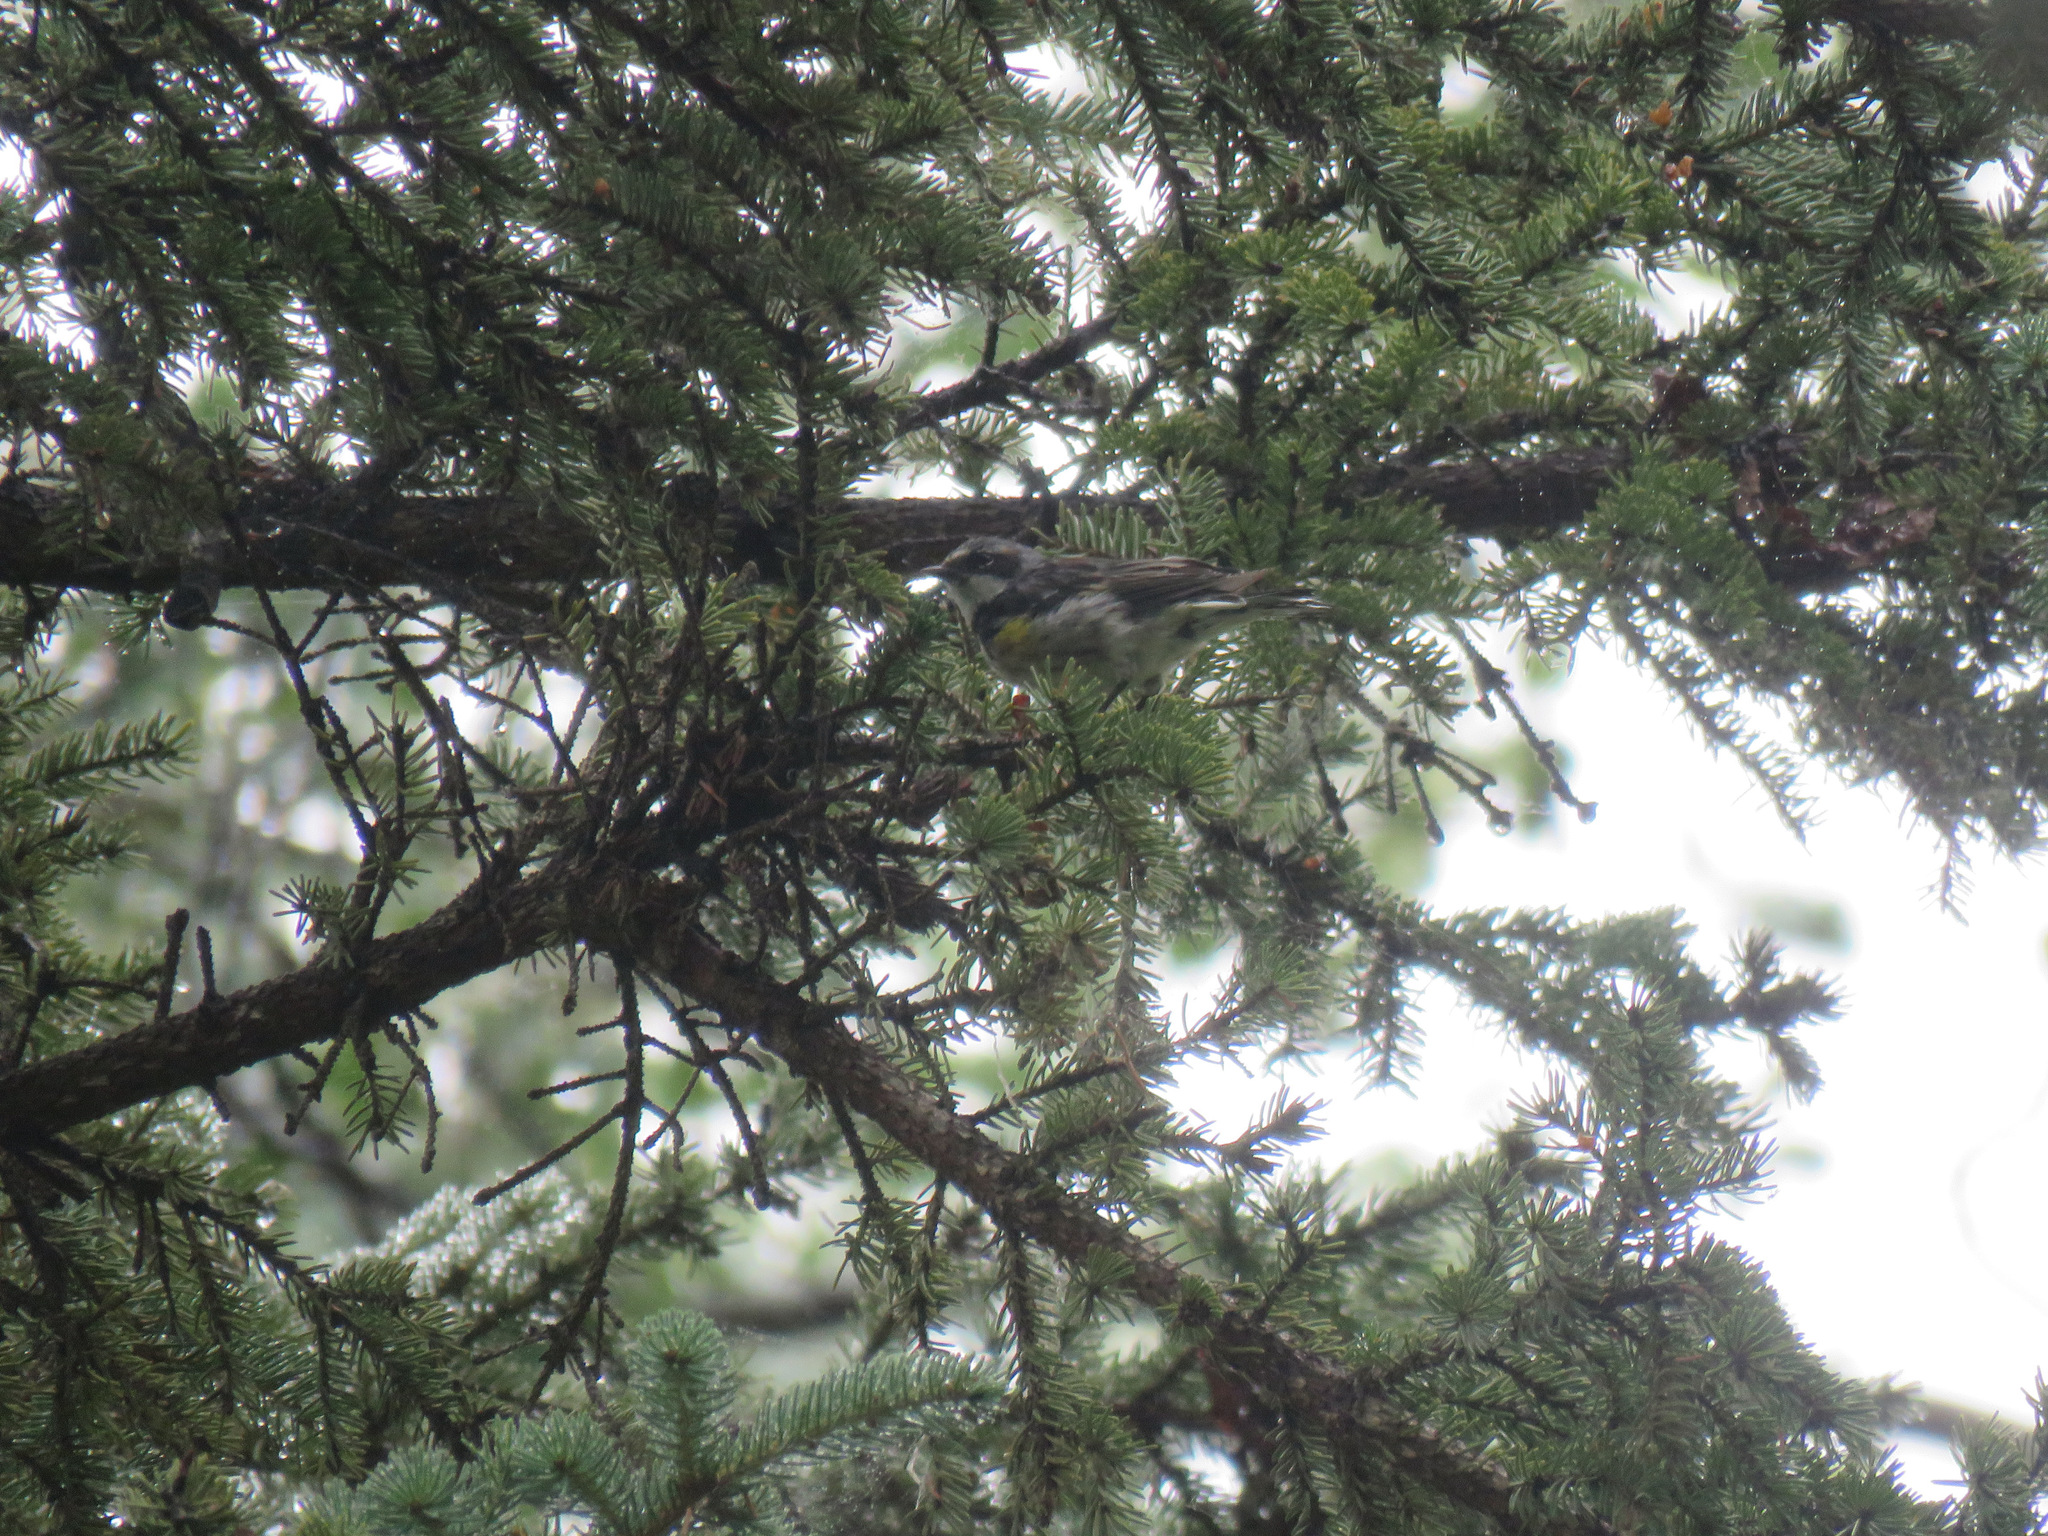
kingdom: Animalia
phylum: Chordata
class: Aves
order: Passeriformes
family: Parulidae
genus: Setophaga
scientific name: Setophaga coronata
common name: Myrtle warbler
